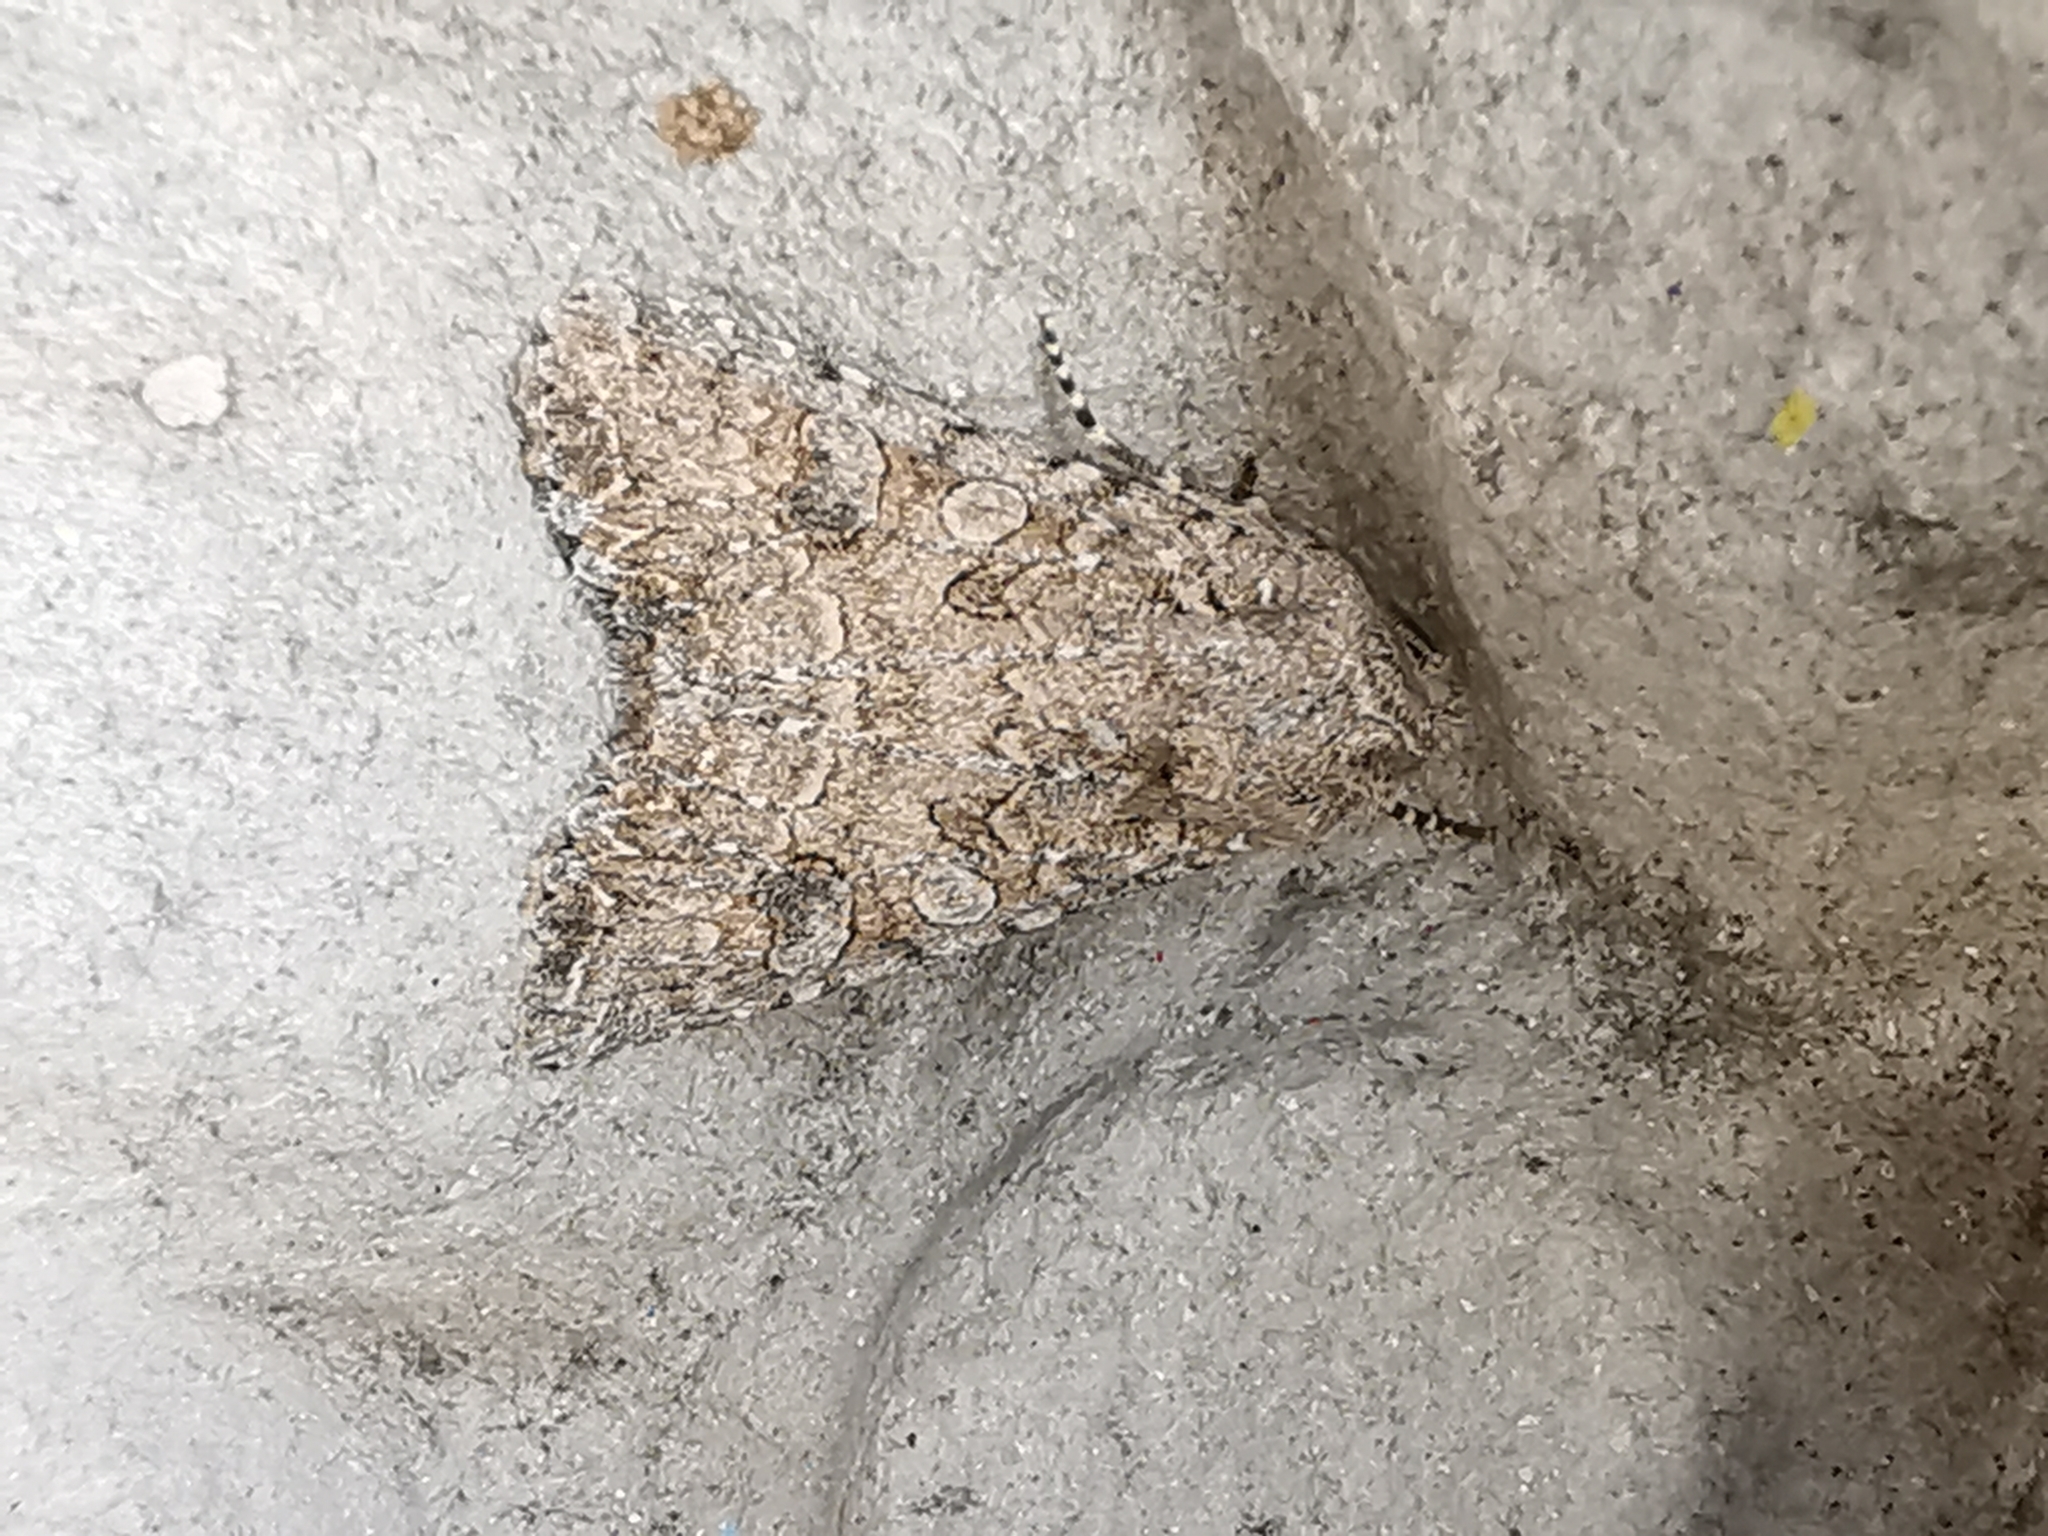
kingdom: Animalia
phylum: Arthropoda
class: Insecta
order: Lepidoptera
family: Noctuidae
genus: Anarta
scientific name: Anarta trifolii
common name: Clover cutworm moth
